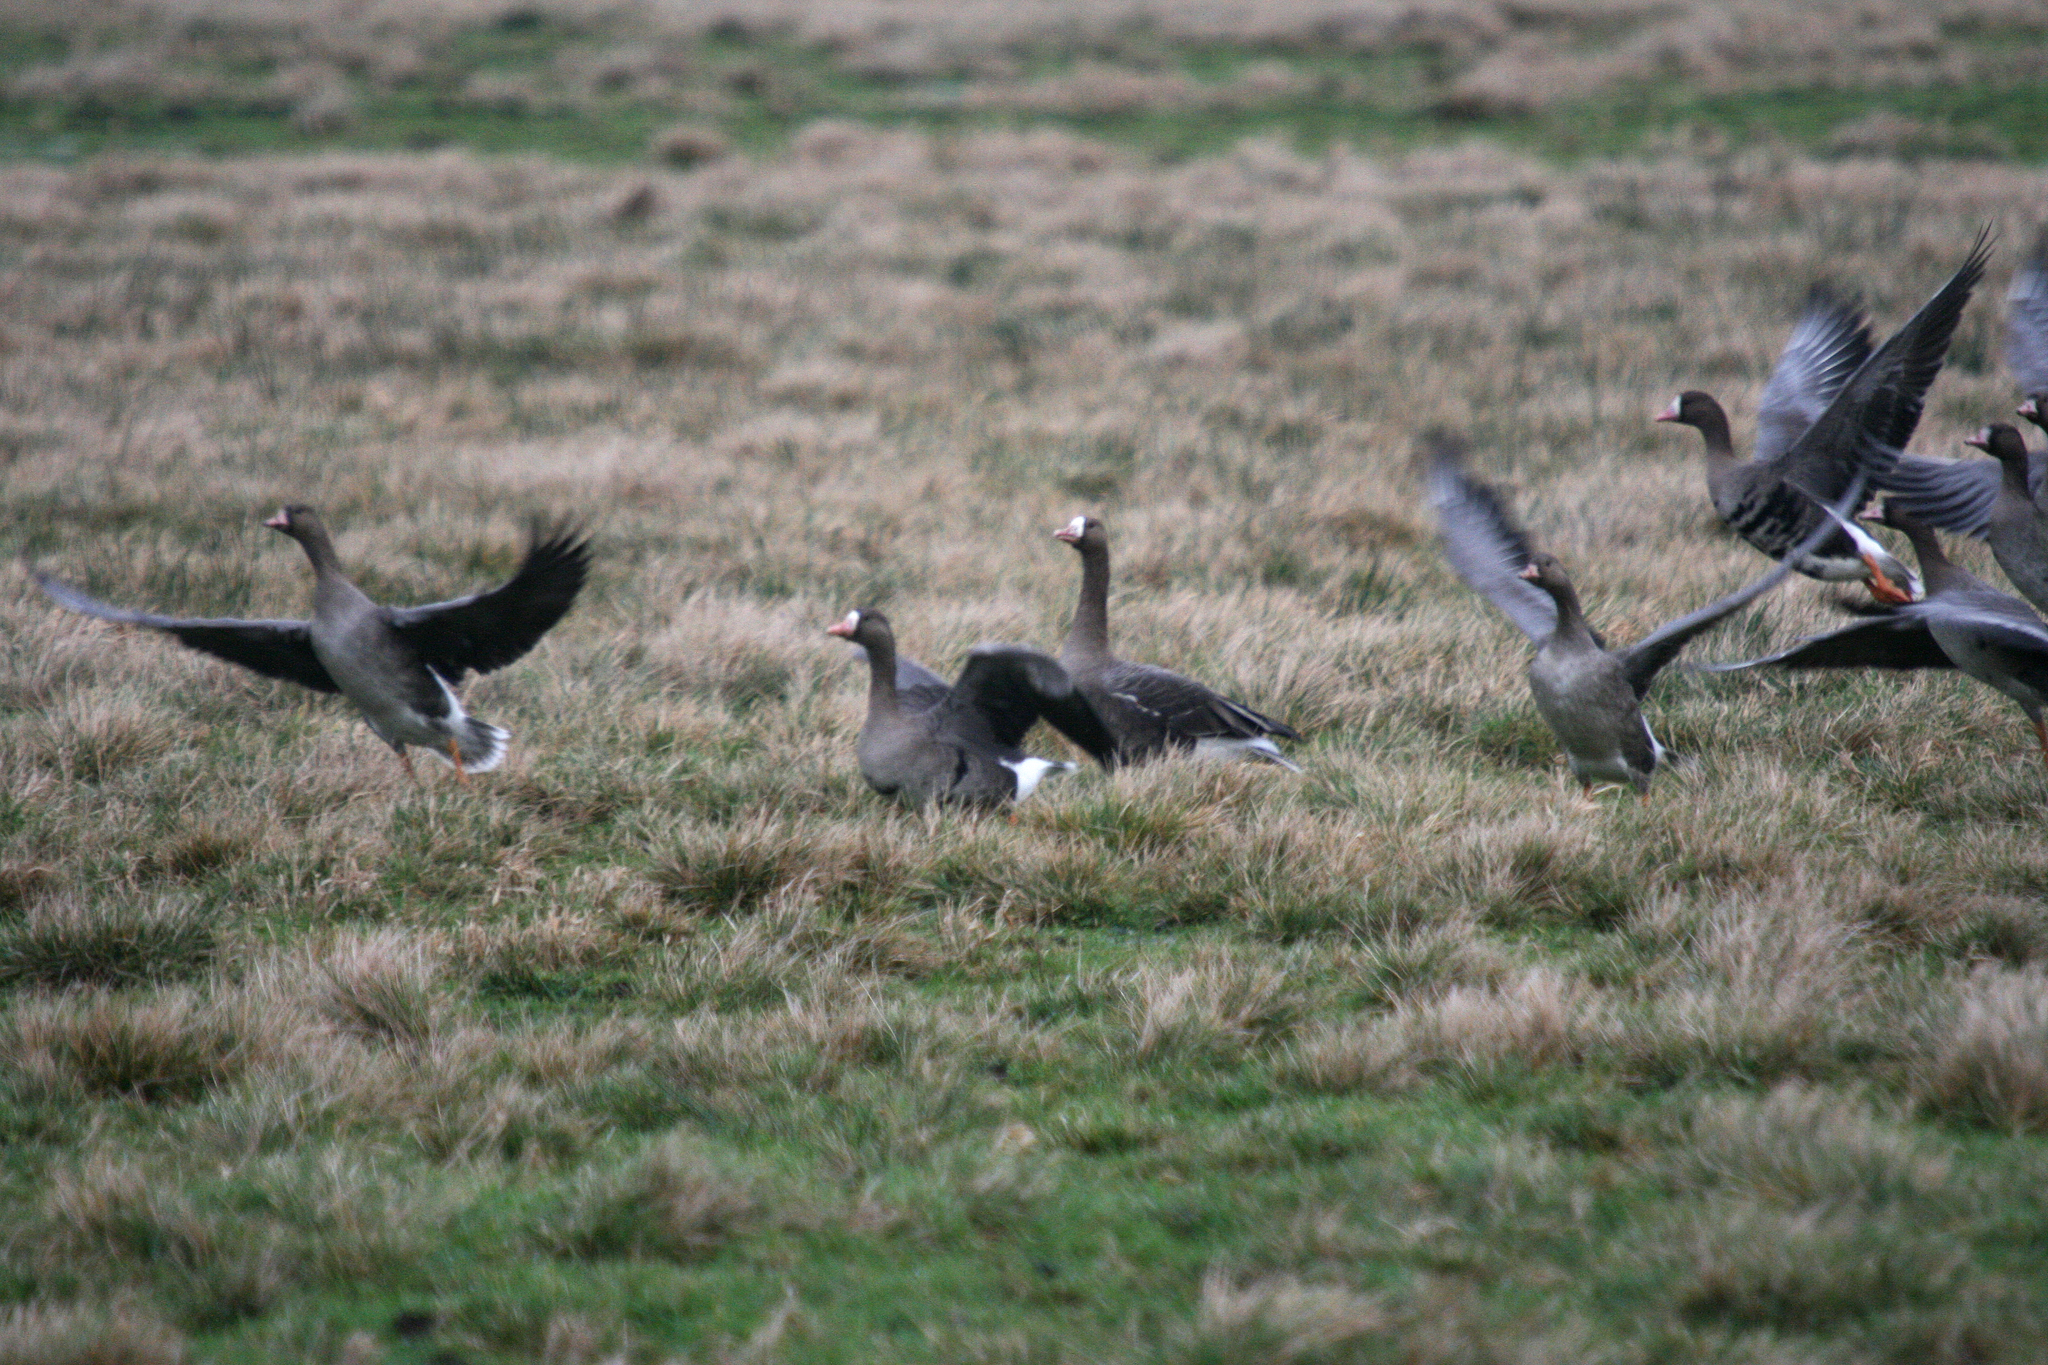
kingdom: Animalia
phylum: Chordata
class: Aves
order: Anseriformes
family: Anatidae
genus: Anser
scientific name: Anser albifrons
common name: Greater white-fronted goose
